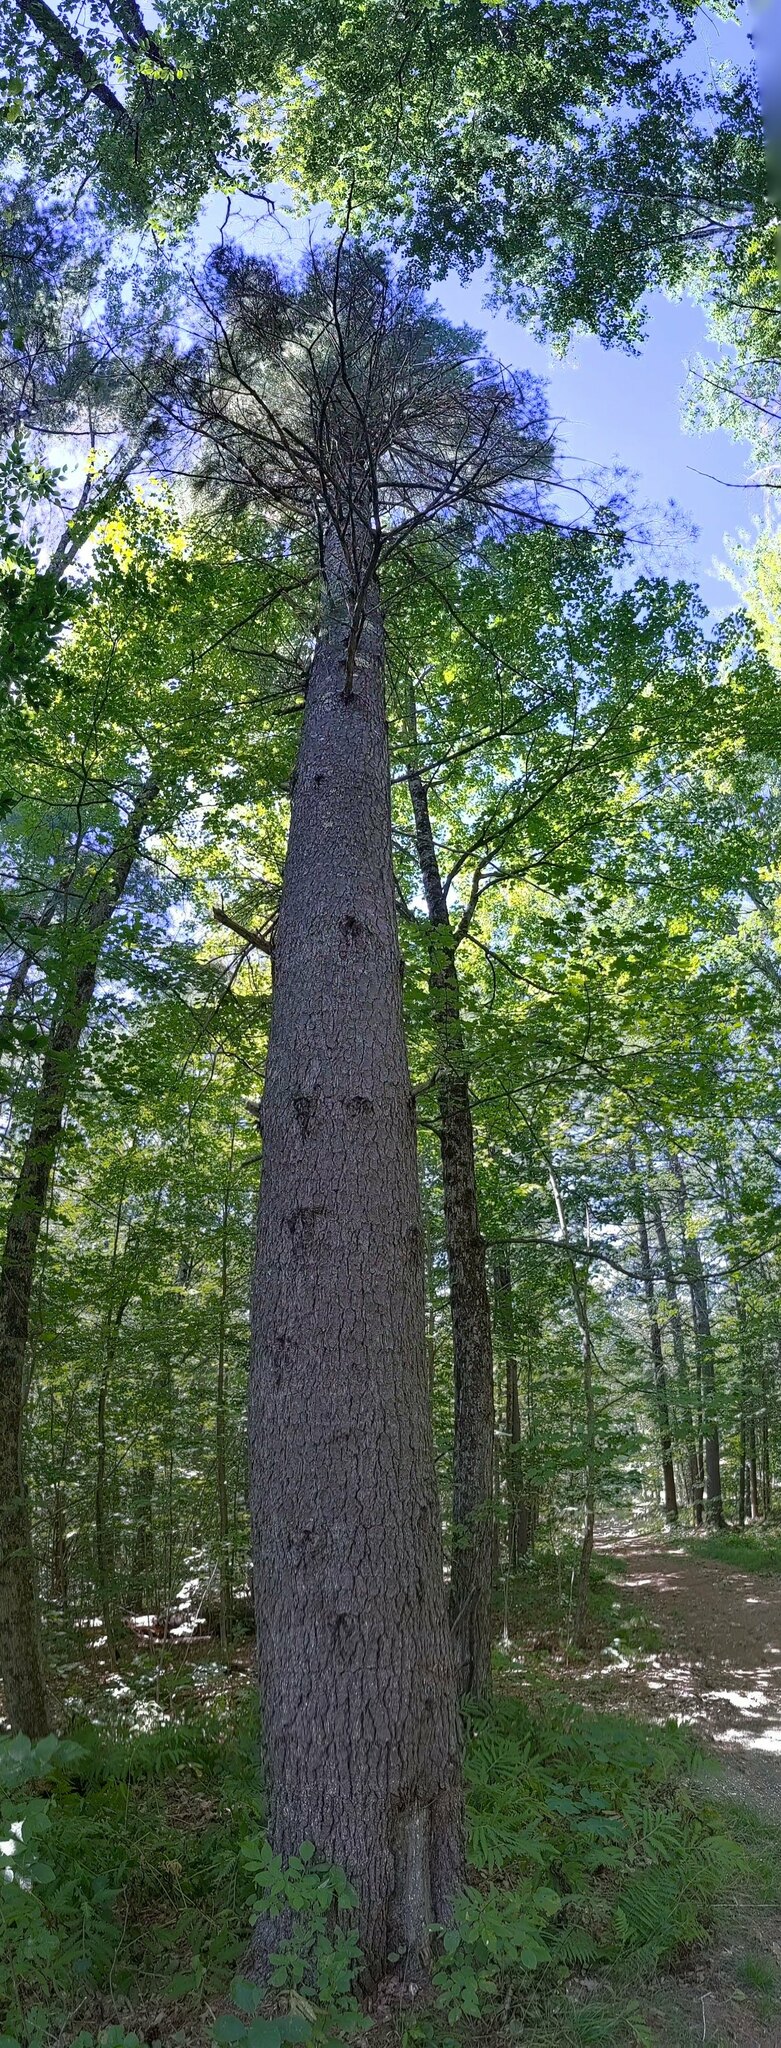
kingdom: Plantae
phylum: Tracheophyta
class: Pinopsida
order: Pinales
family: Pinaceae
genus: Pinus
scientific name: Pinus strobus
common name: Weymouth pine
